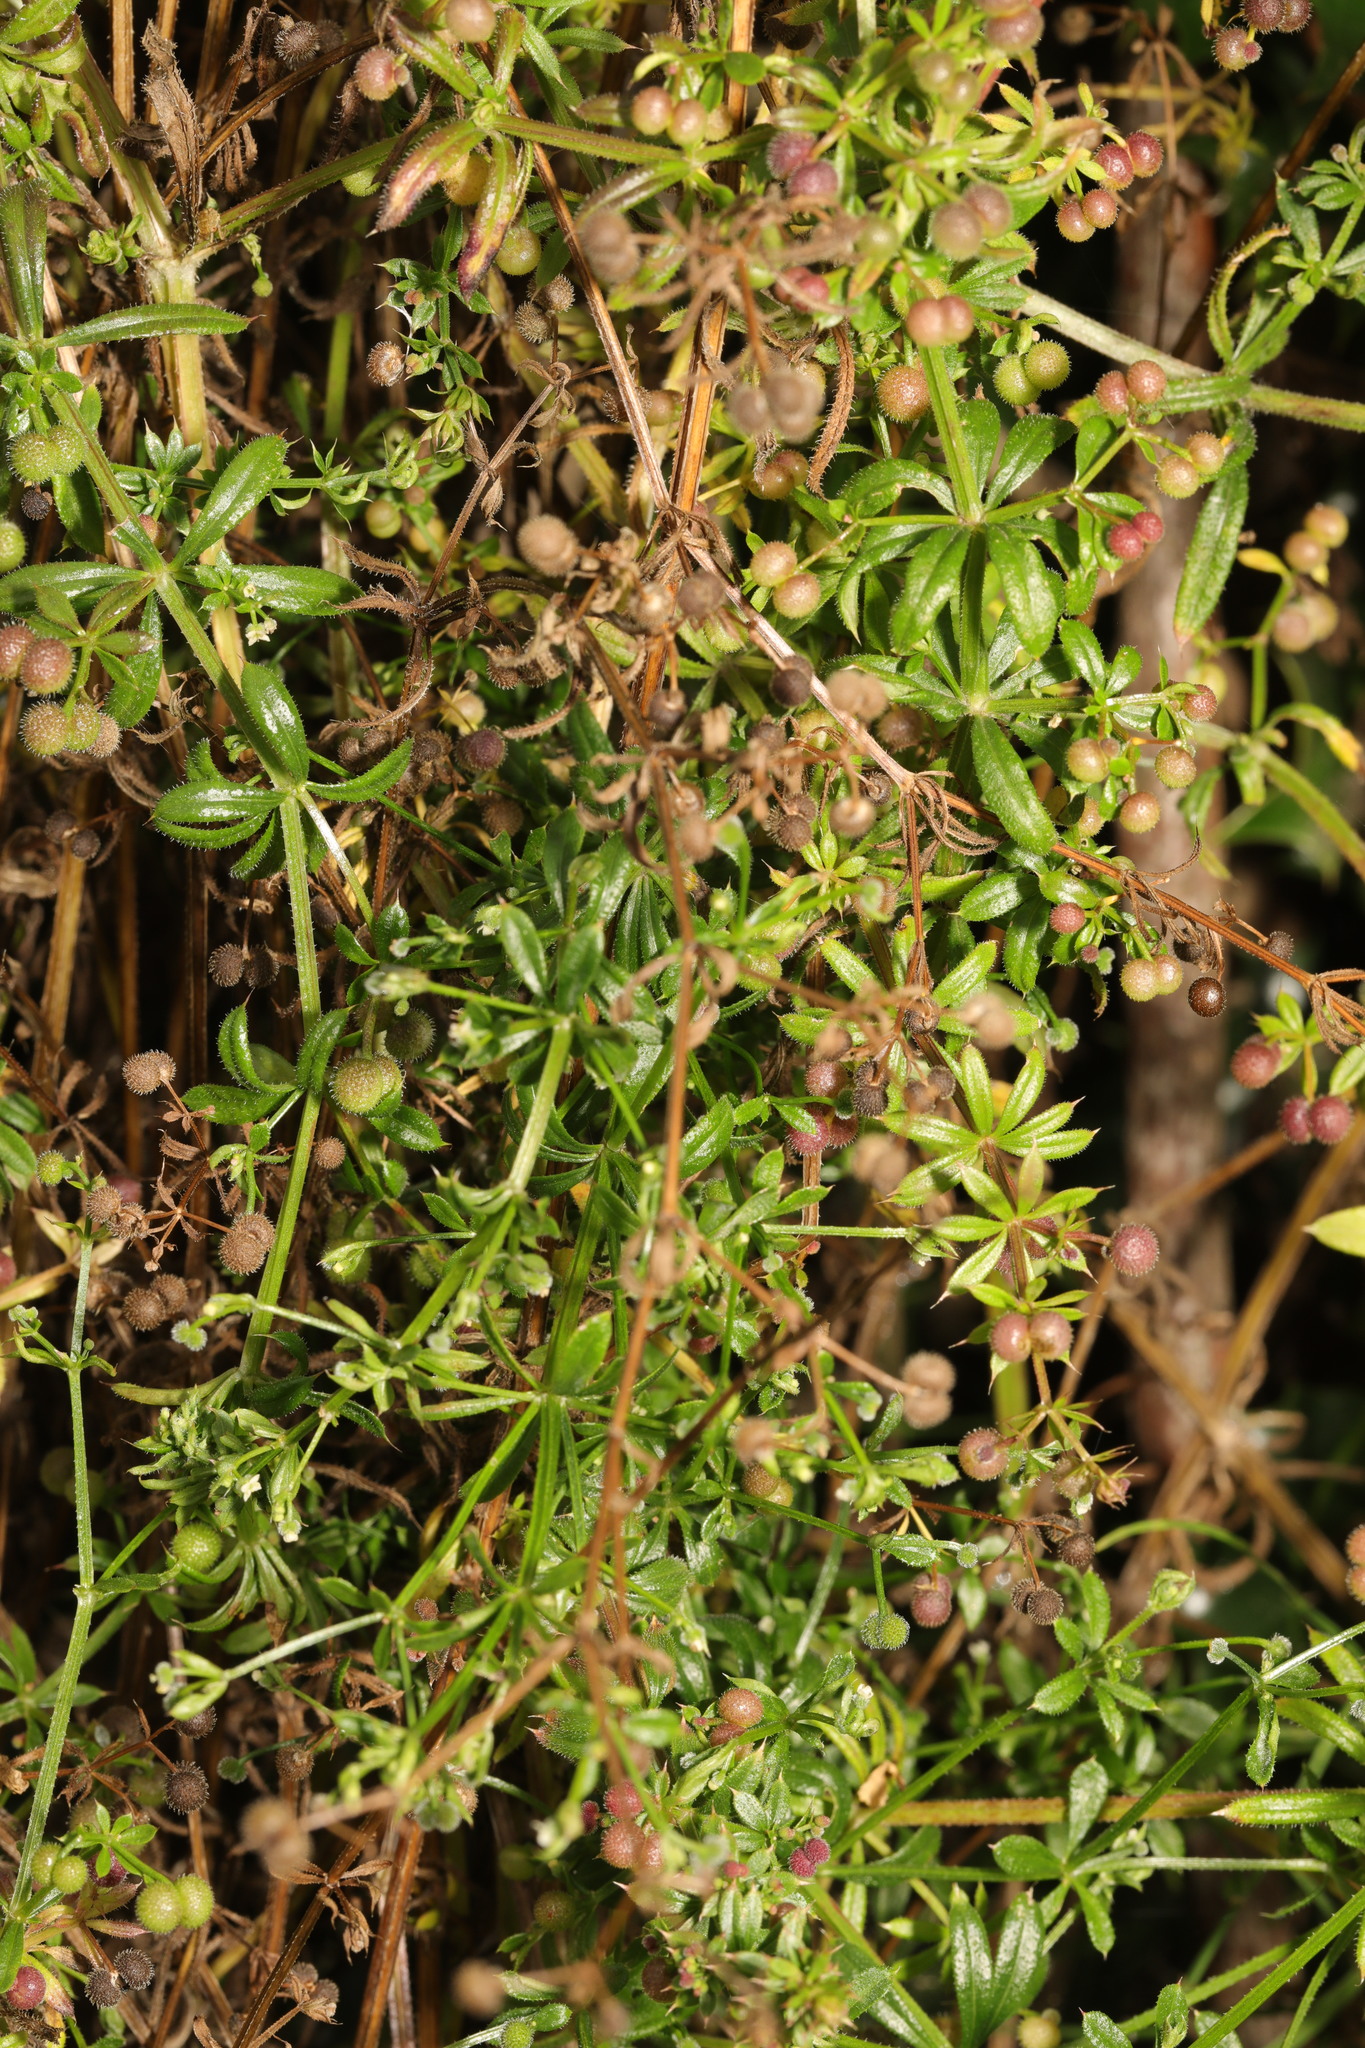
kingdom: Plantae
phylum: Tracheophyta
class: Magnoliopsida
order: Gentianales
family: Rubiaceae
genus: Galium
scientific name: Galium aparine
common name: Cleavers
